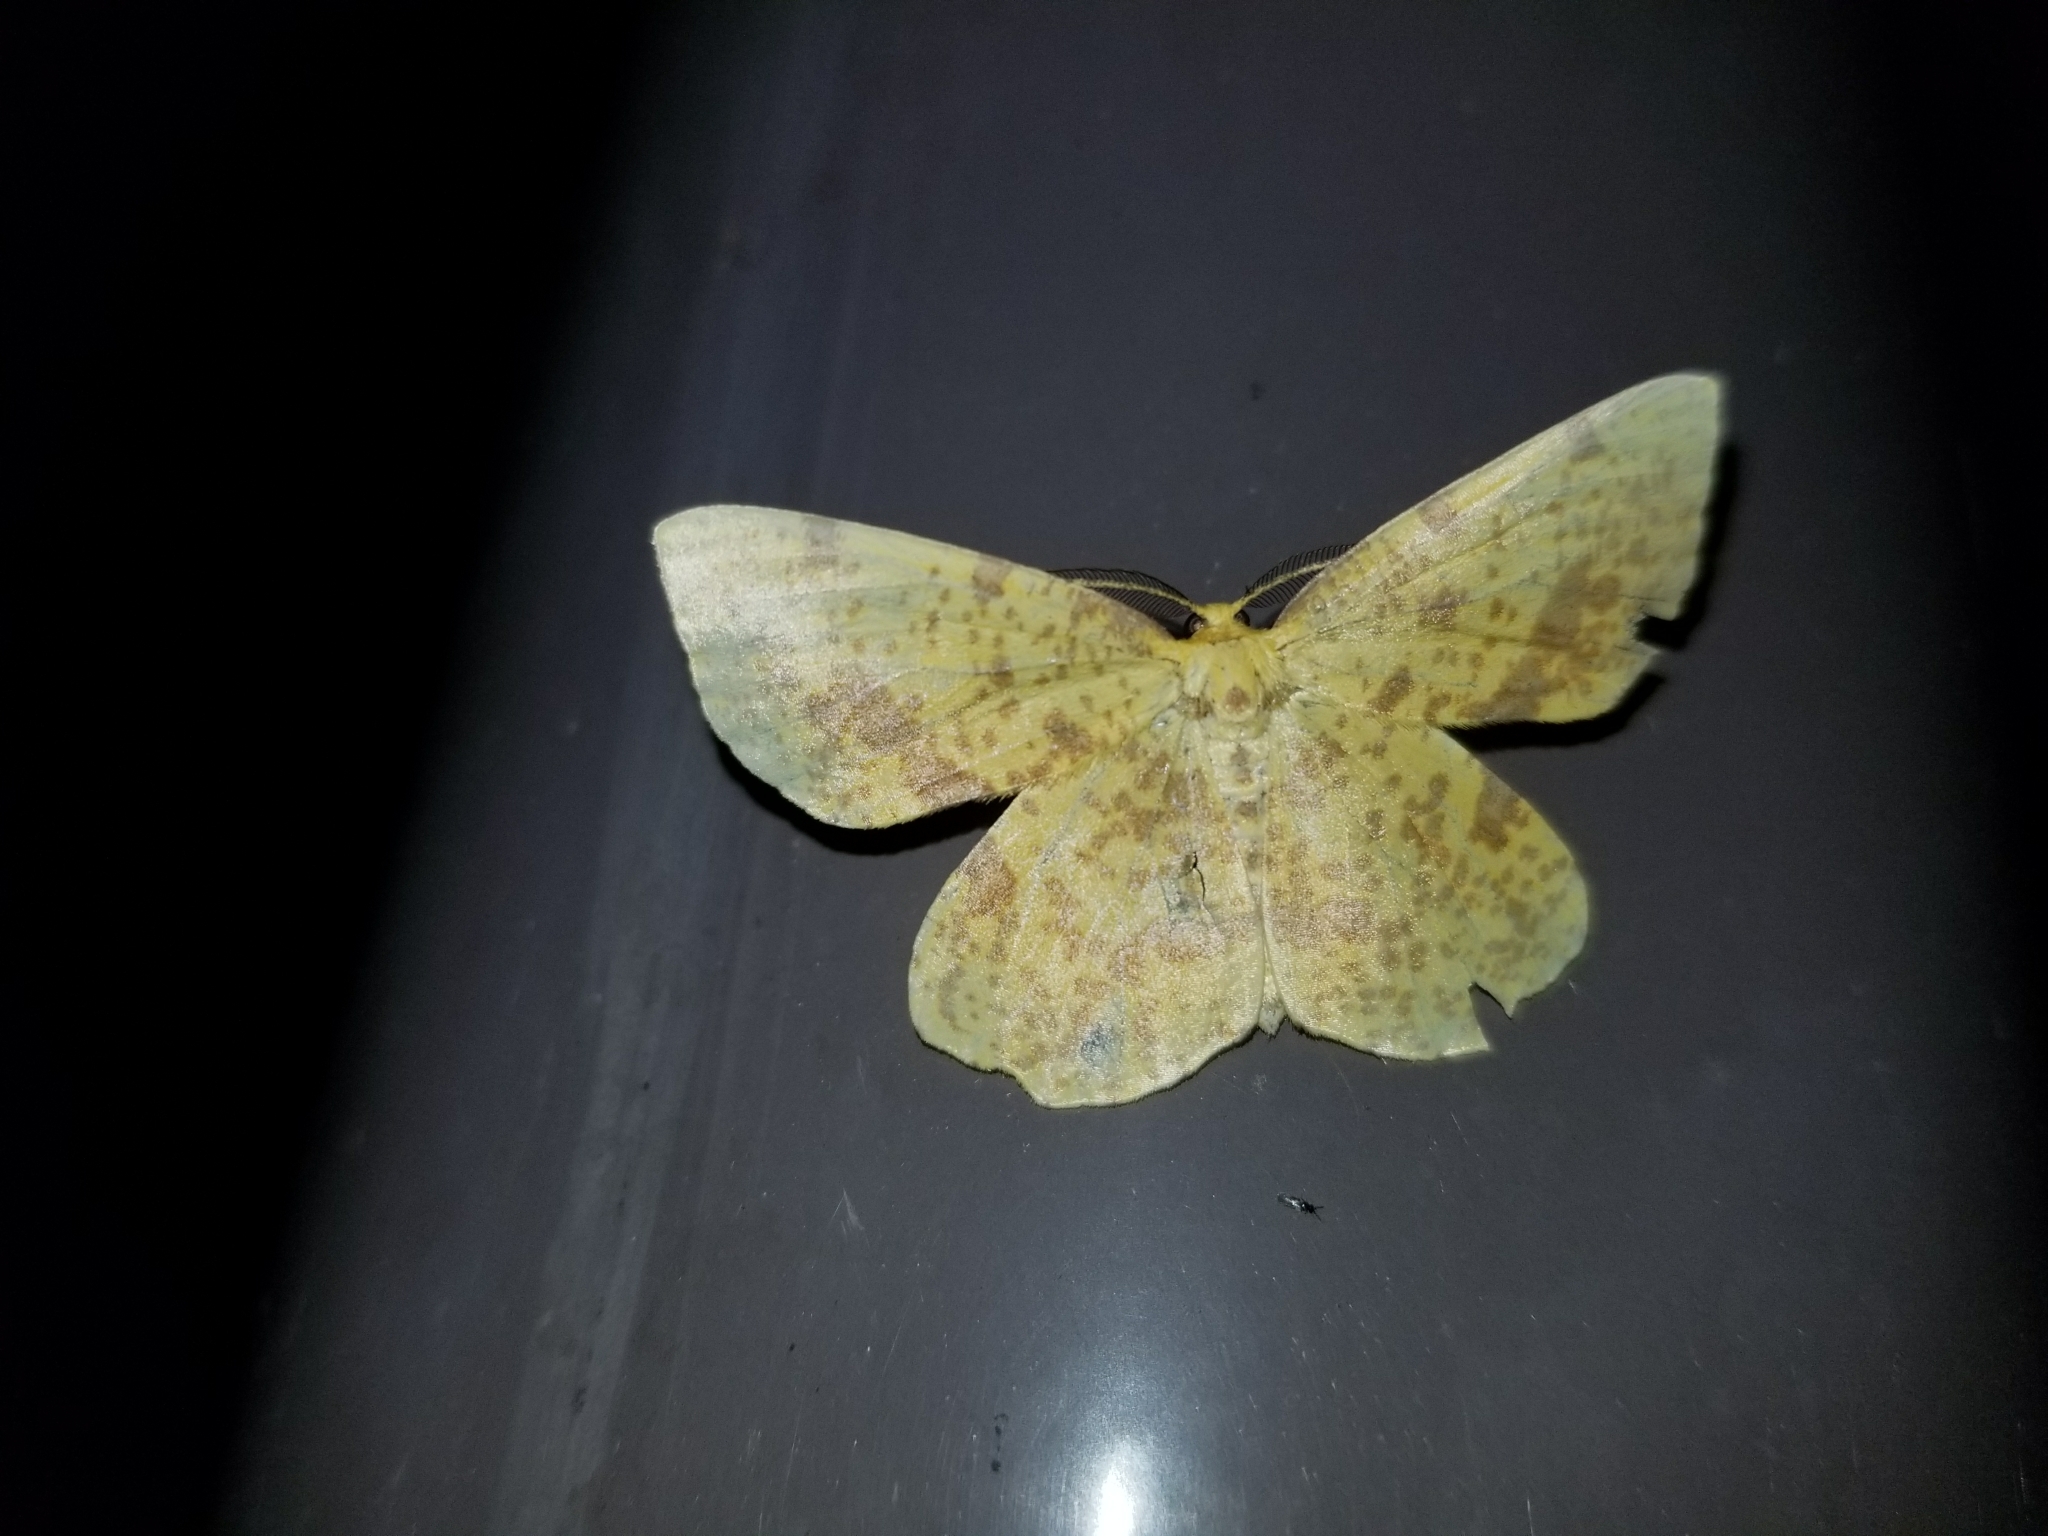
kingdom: Animalia
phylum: Arthropoda
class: Insecta
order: Lepidoptera
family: Geometridae
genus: Xanthotype
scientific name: Xanthotype
